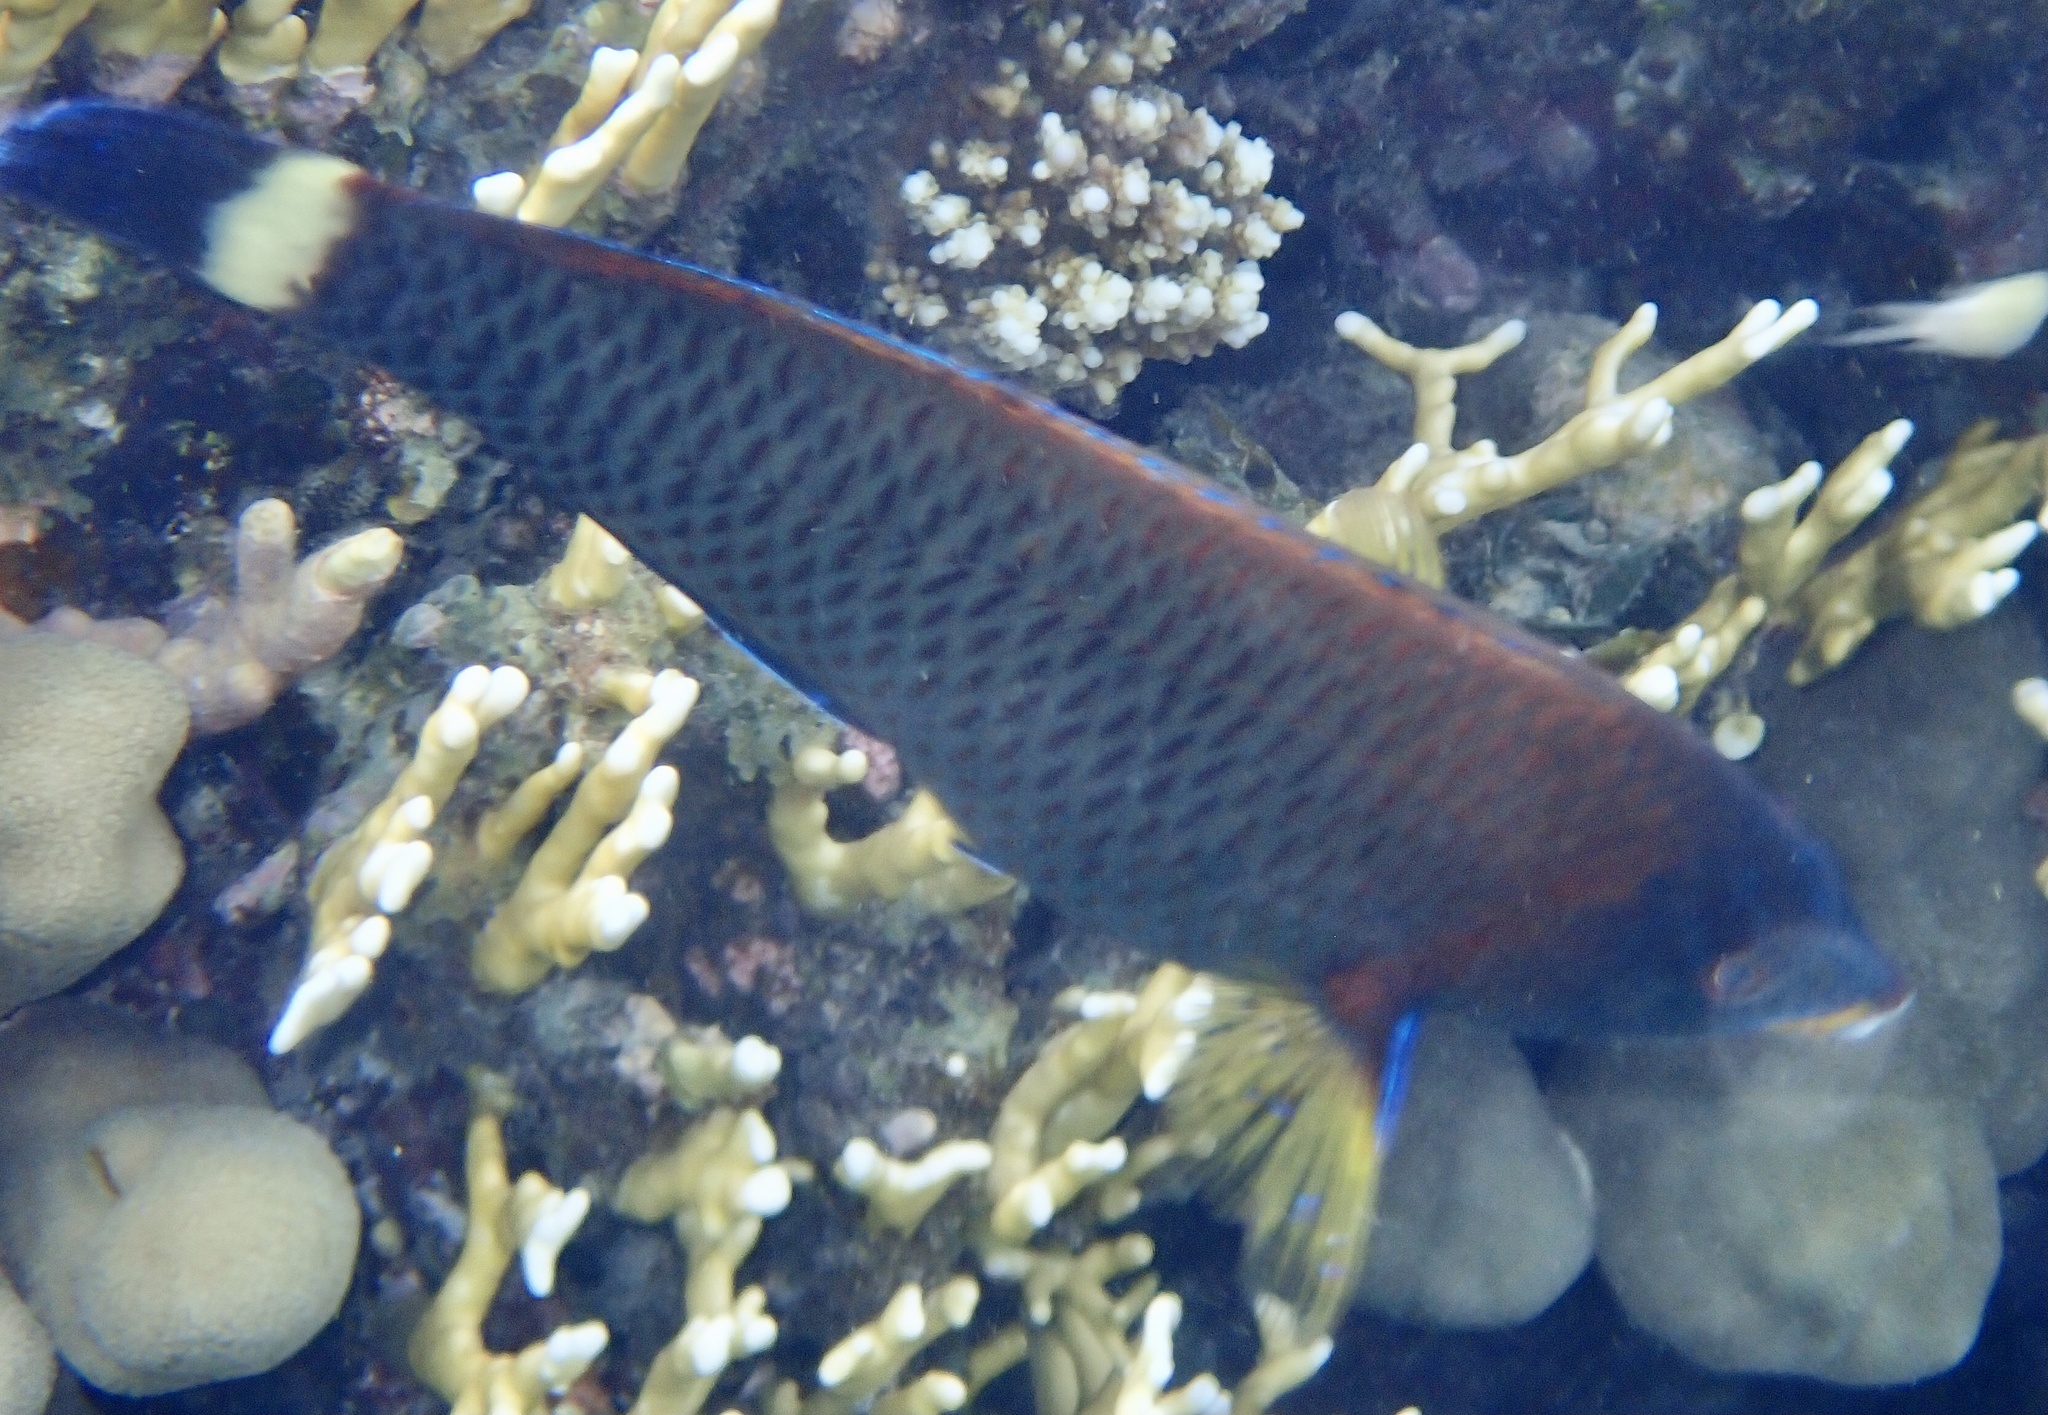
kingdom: Animalia
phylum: Chordata
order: Perciformes
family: Labridae
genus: Pseudodax
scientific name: Pseudodax moluccanus
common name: Chiseltooth wrasse
